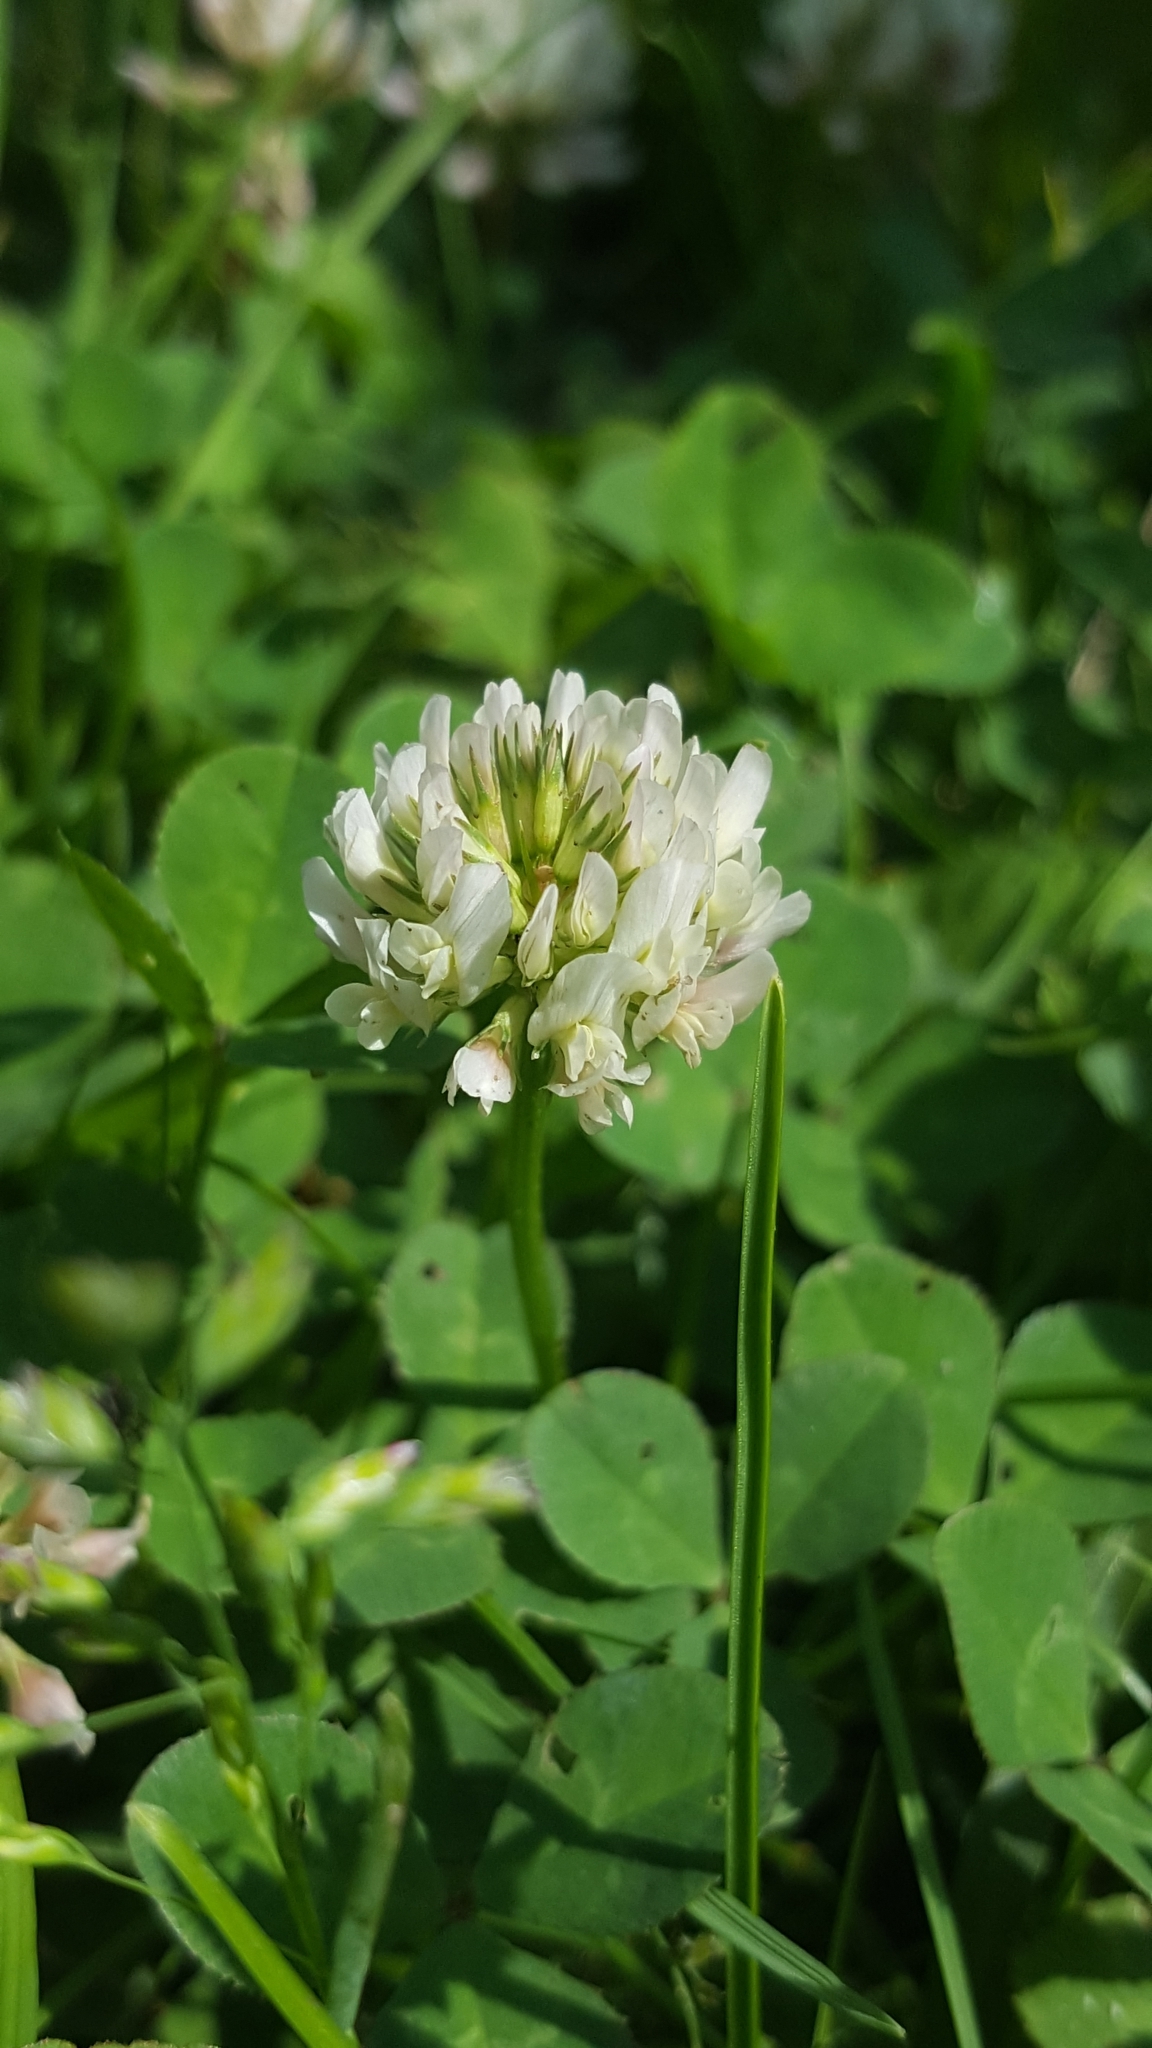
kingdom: Plantae
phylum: Tracheophyta
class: Magnoliopsida
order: Fabales
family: Fabaceae
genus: Trifolium
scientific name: Trifolium repens
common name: White clover
